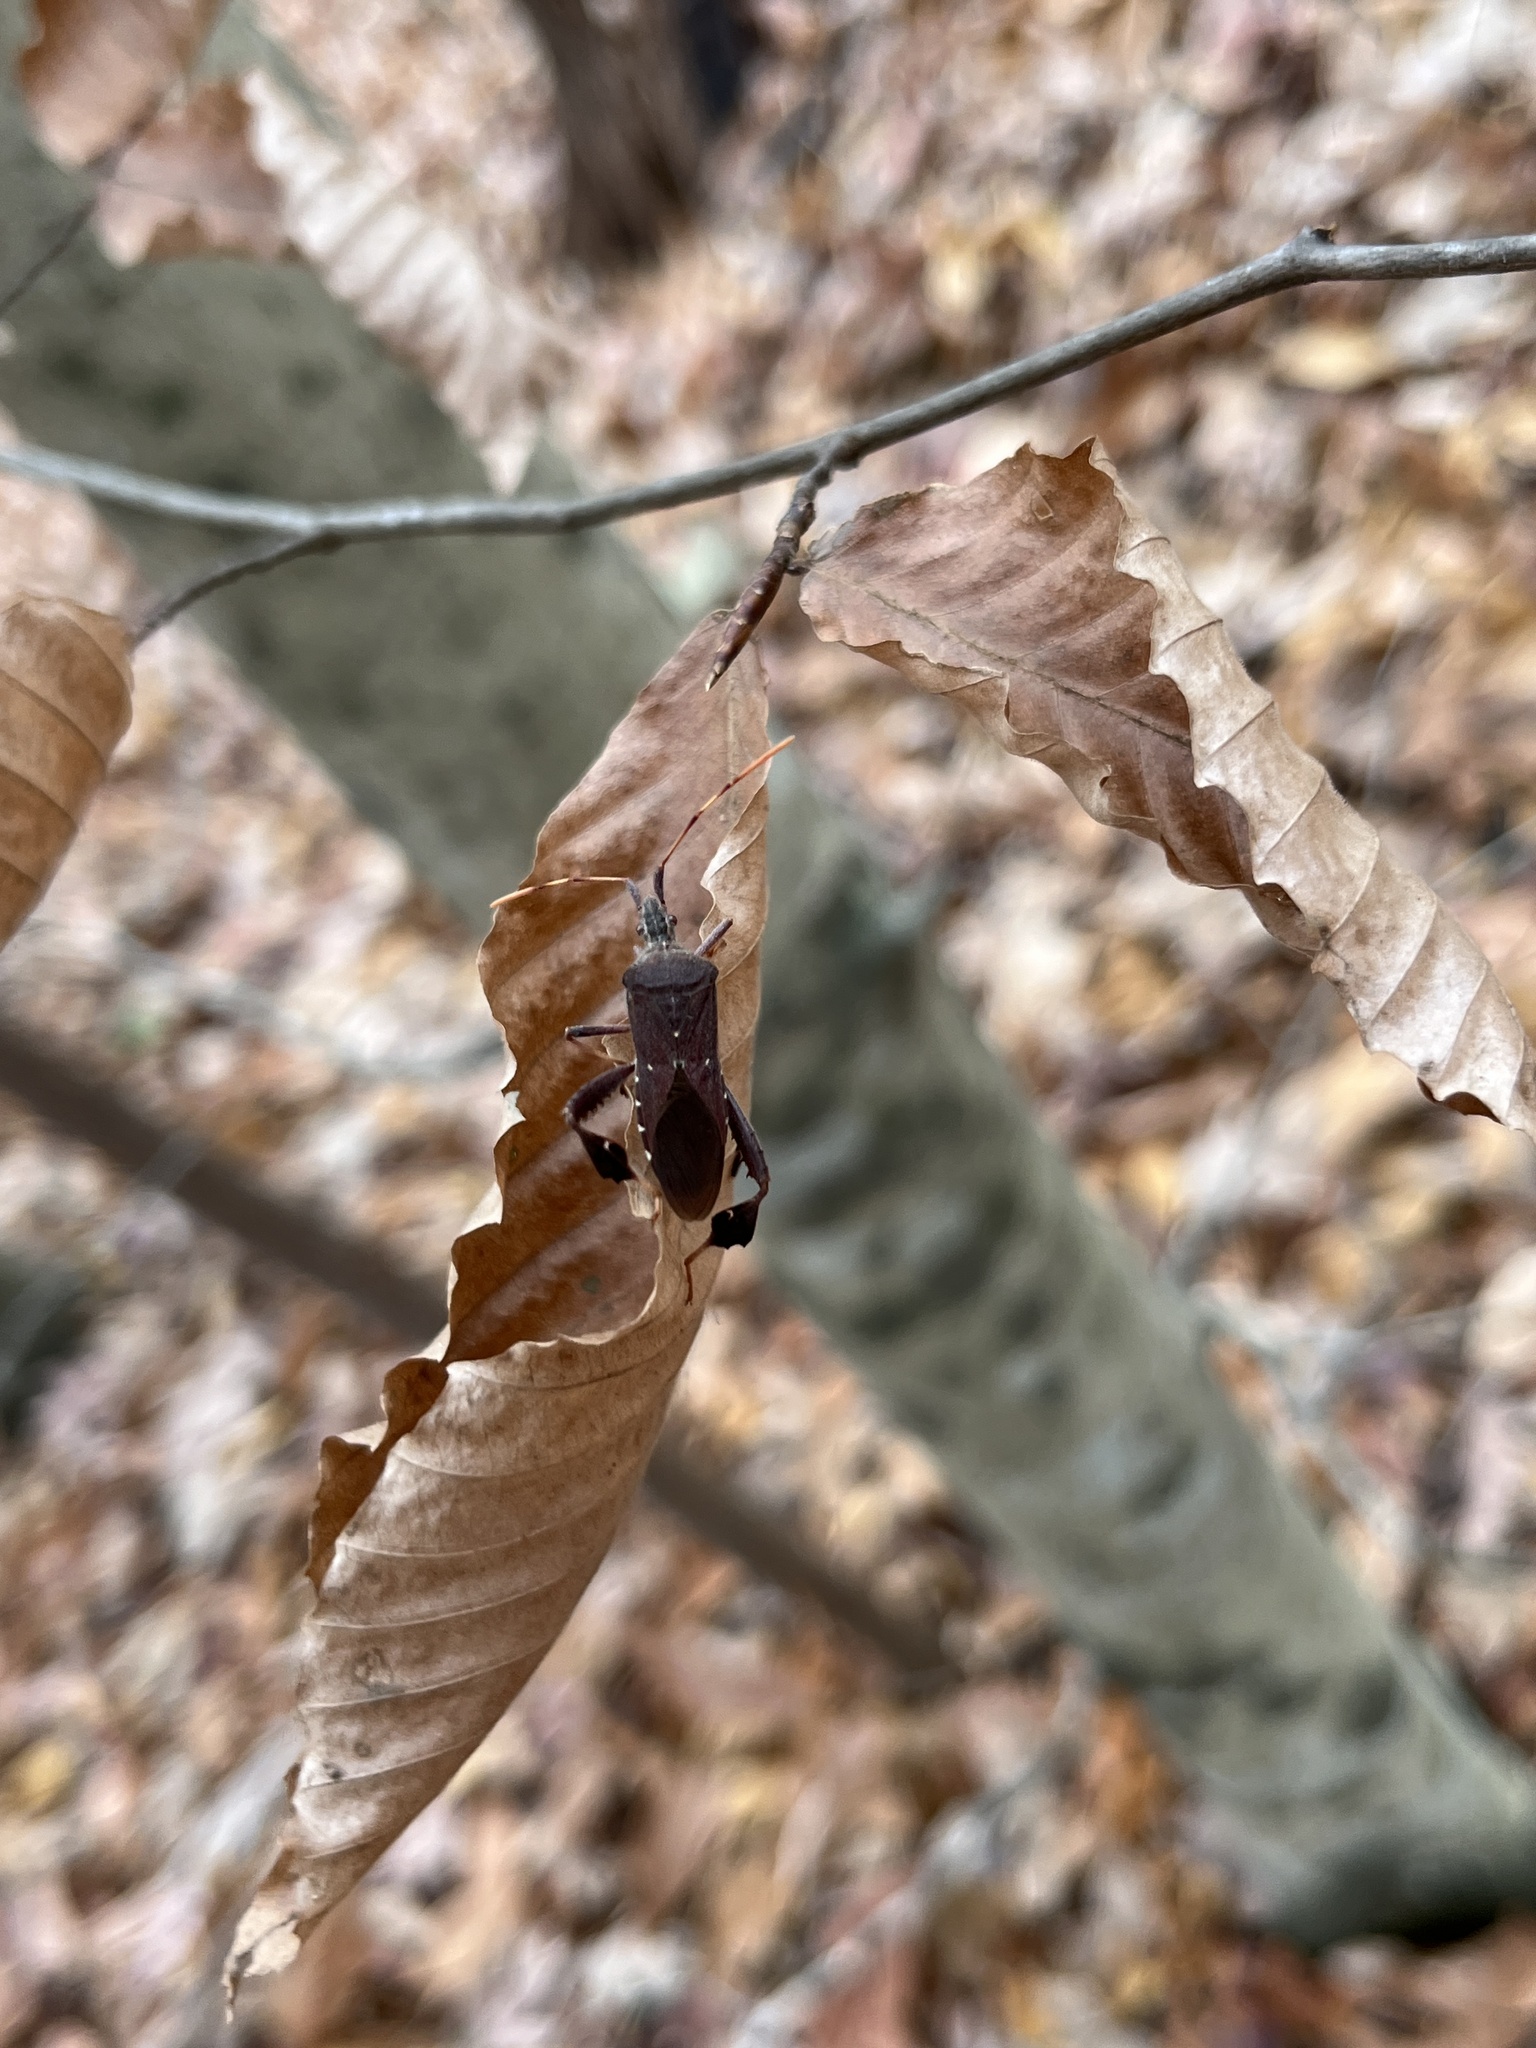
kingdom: Animalia
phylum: Arthropoda
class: Insecta
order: Hemiptera
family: Coreidae
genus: Leptoglossus
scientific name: Leptoglossus oppositus
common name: Northern leaf-footed bug
